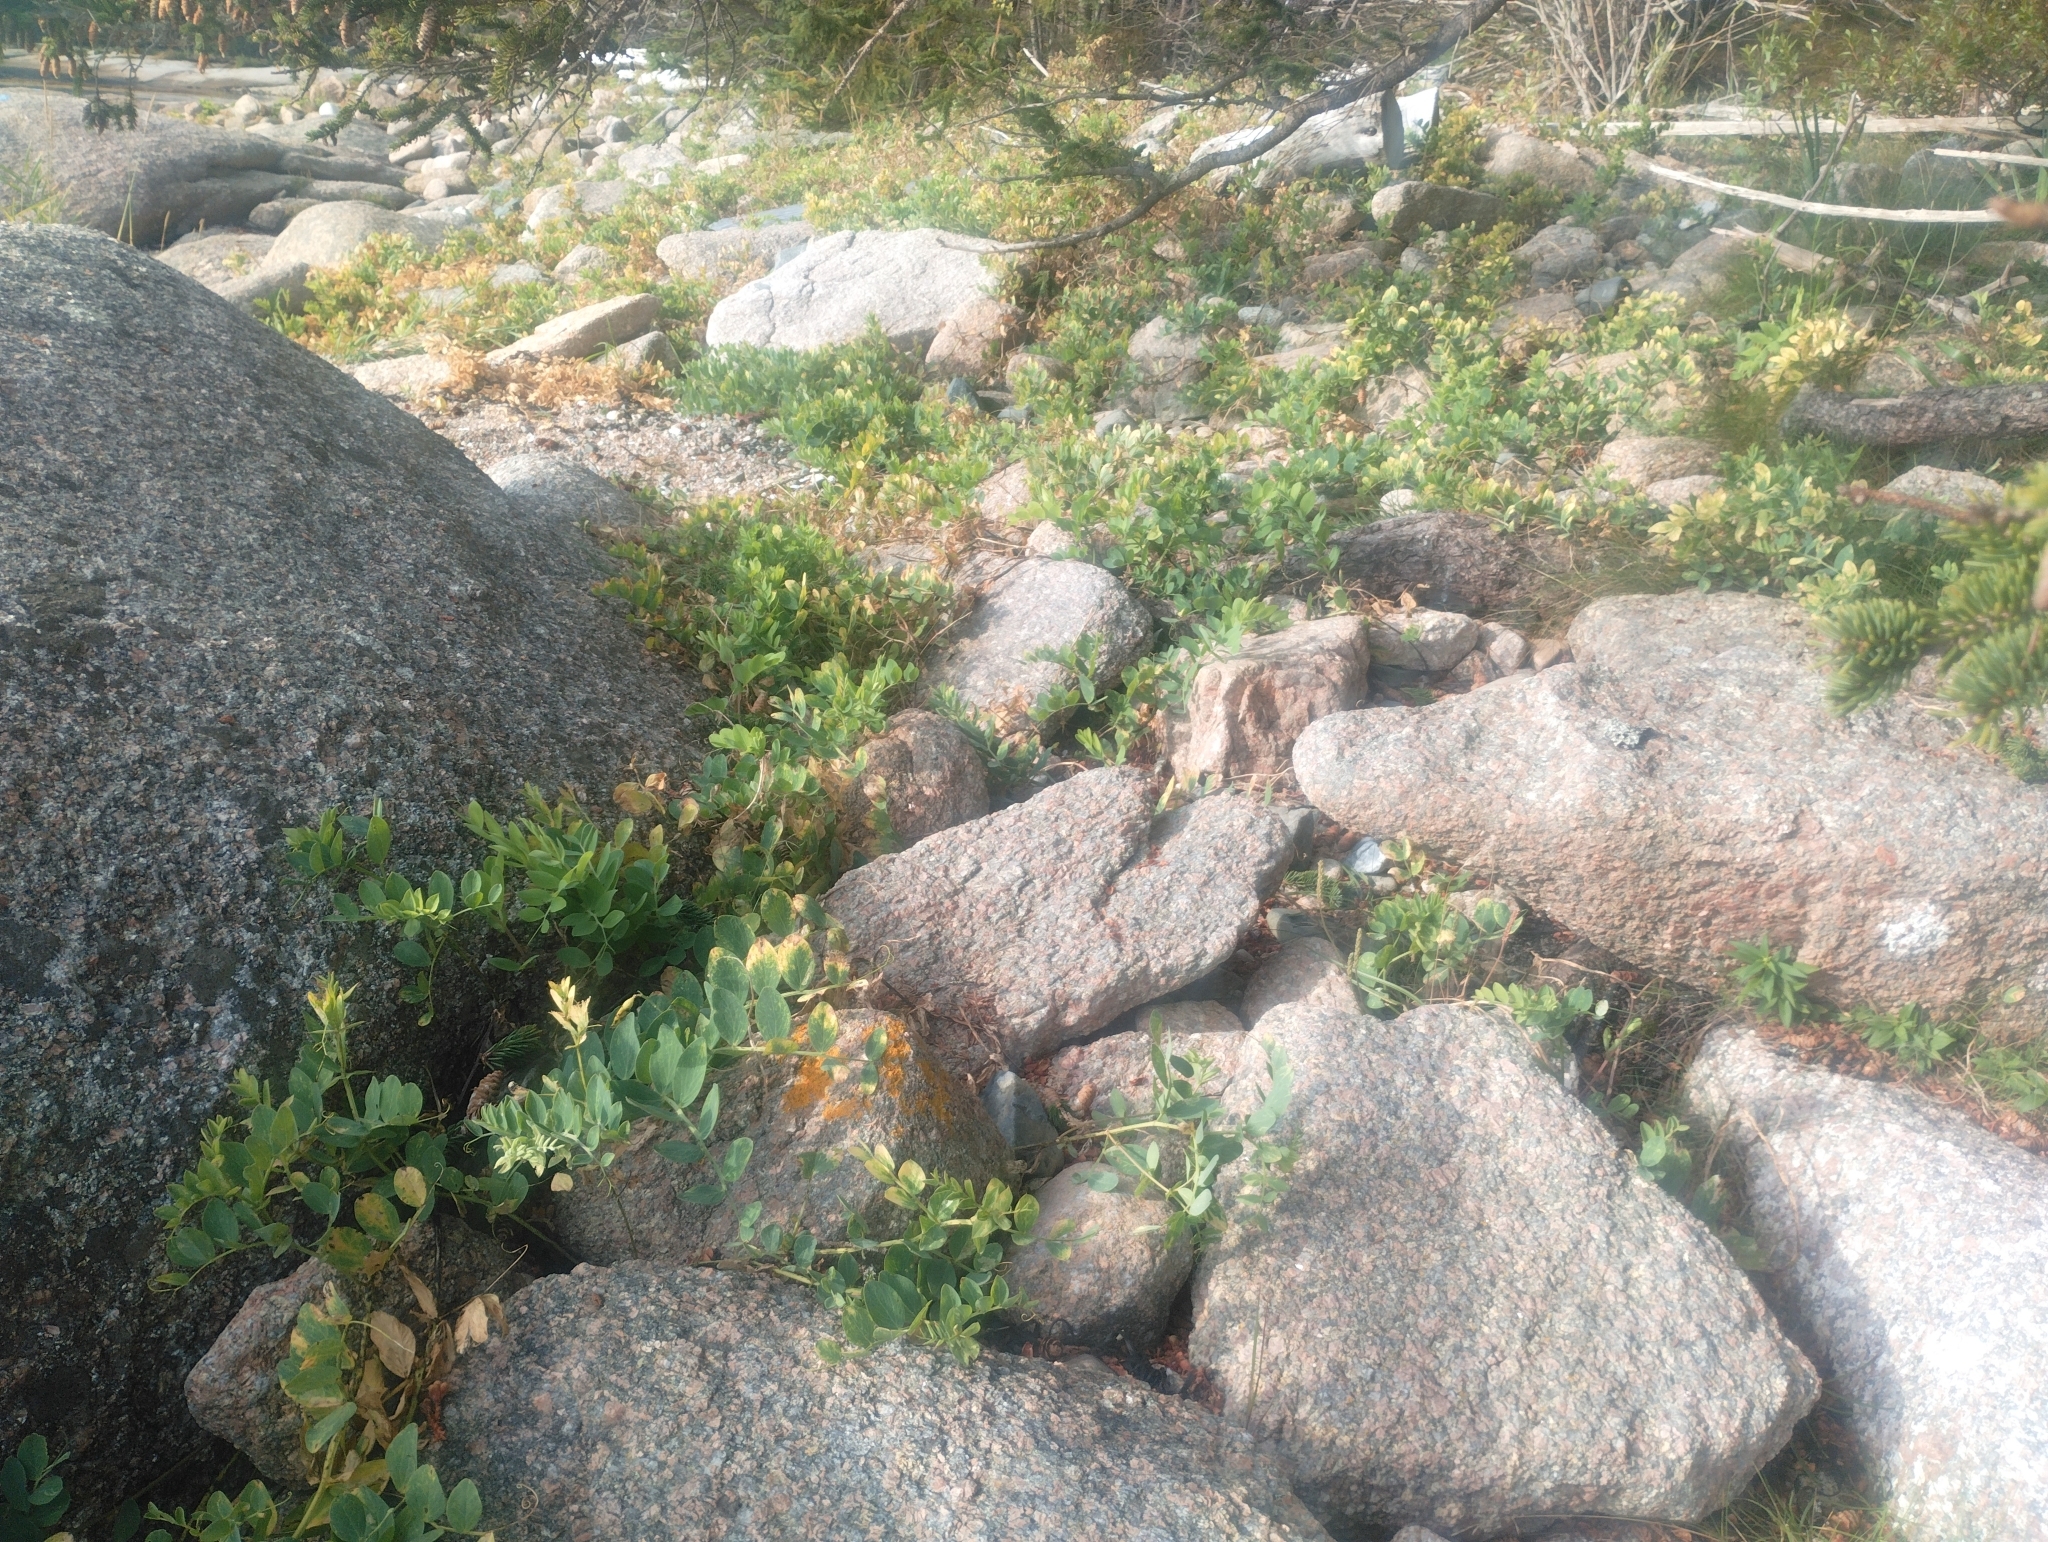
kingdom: Plantae
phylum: Tracheophyta
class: Magnoliopsida
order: Fabales
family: Fabaceae
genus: Lathyrus
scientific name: Lathyrus japonicus
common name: Sea pea
